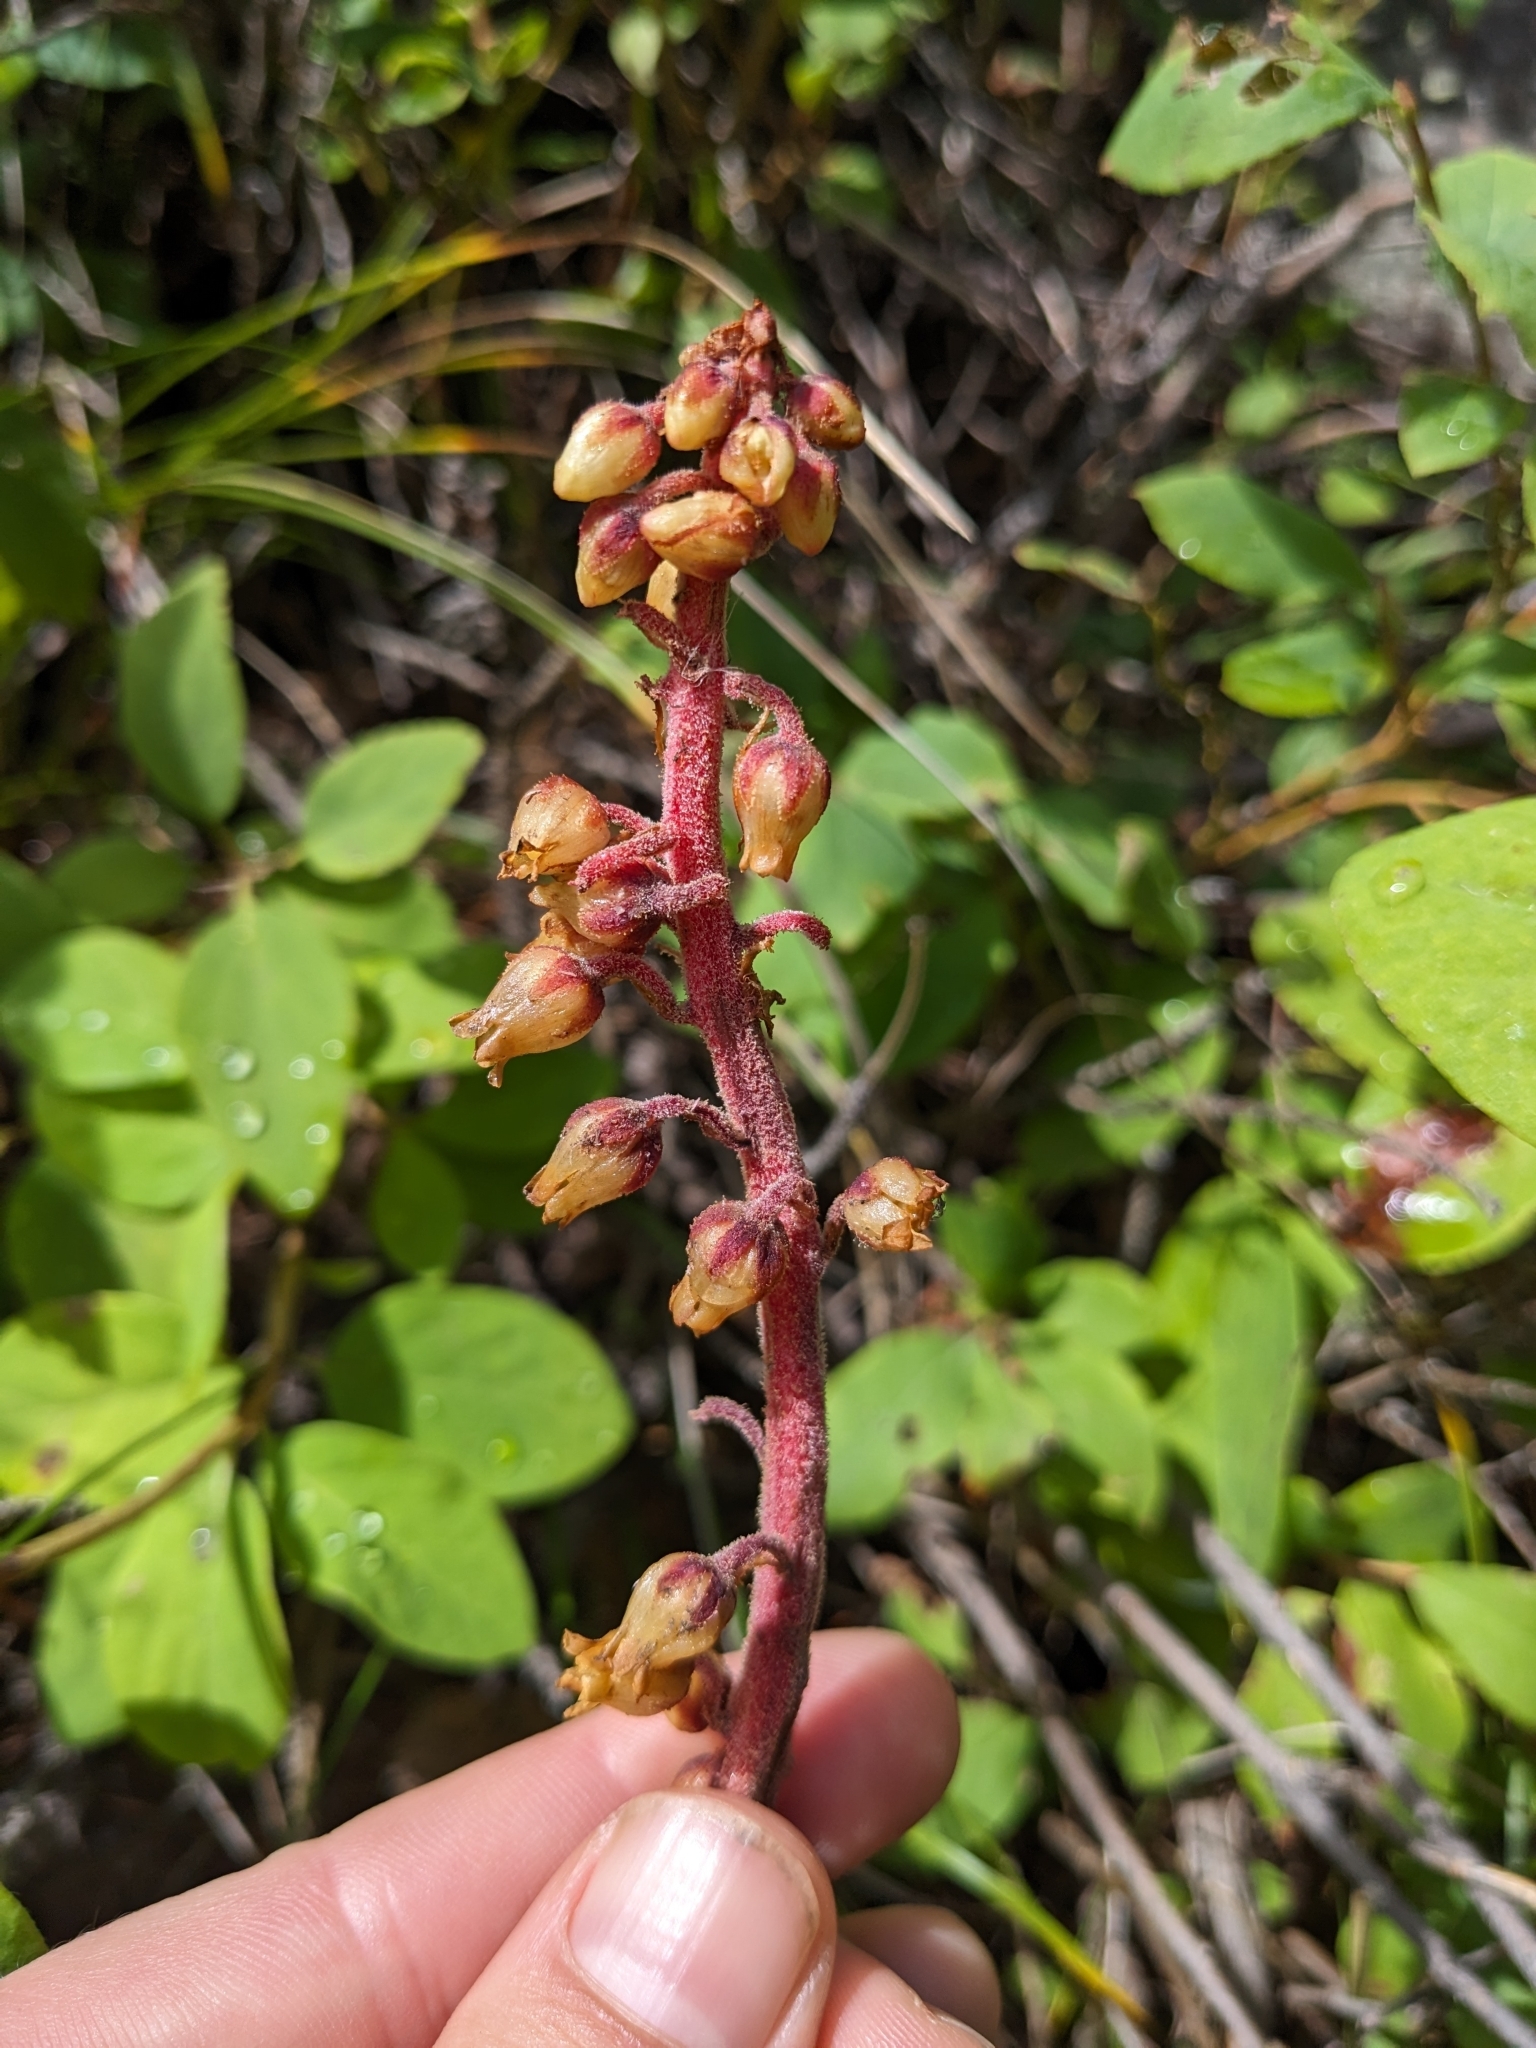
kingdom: Plantae
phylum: Tracheophyta
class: Magnoliopsida
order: Ericales
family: Ericaceae
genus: Pterospora
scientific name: Pterospora andromedea
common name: Giant bird's-nest
